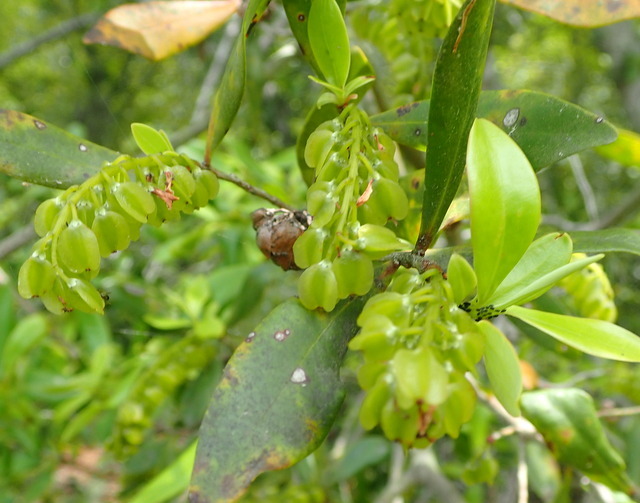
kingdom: Plantae
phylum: Tracheophyta
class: Magnoliopsida
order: Ericales
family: Cyrillaceae
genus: Cliftonia
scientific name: Cliftonia monophylla
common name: Titi
